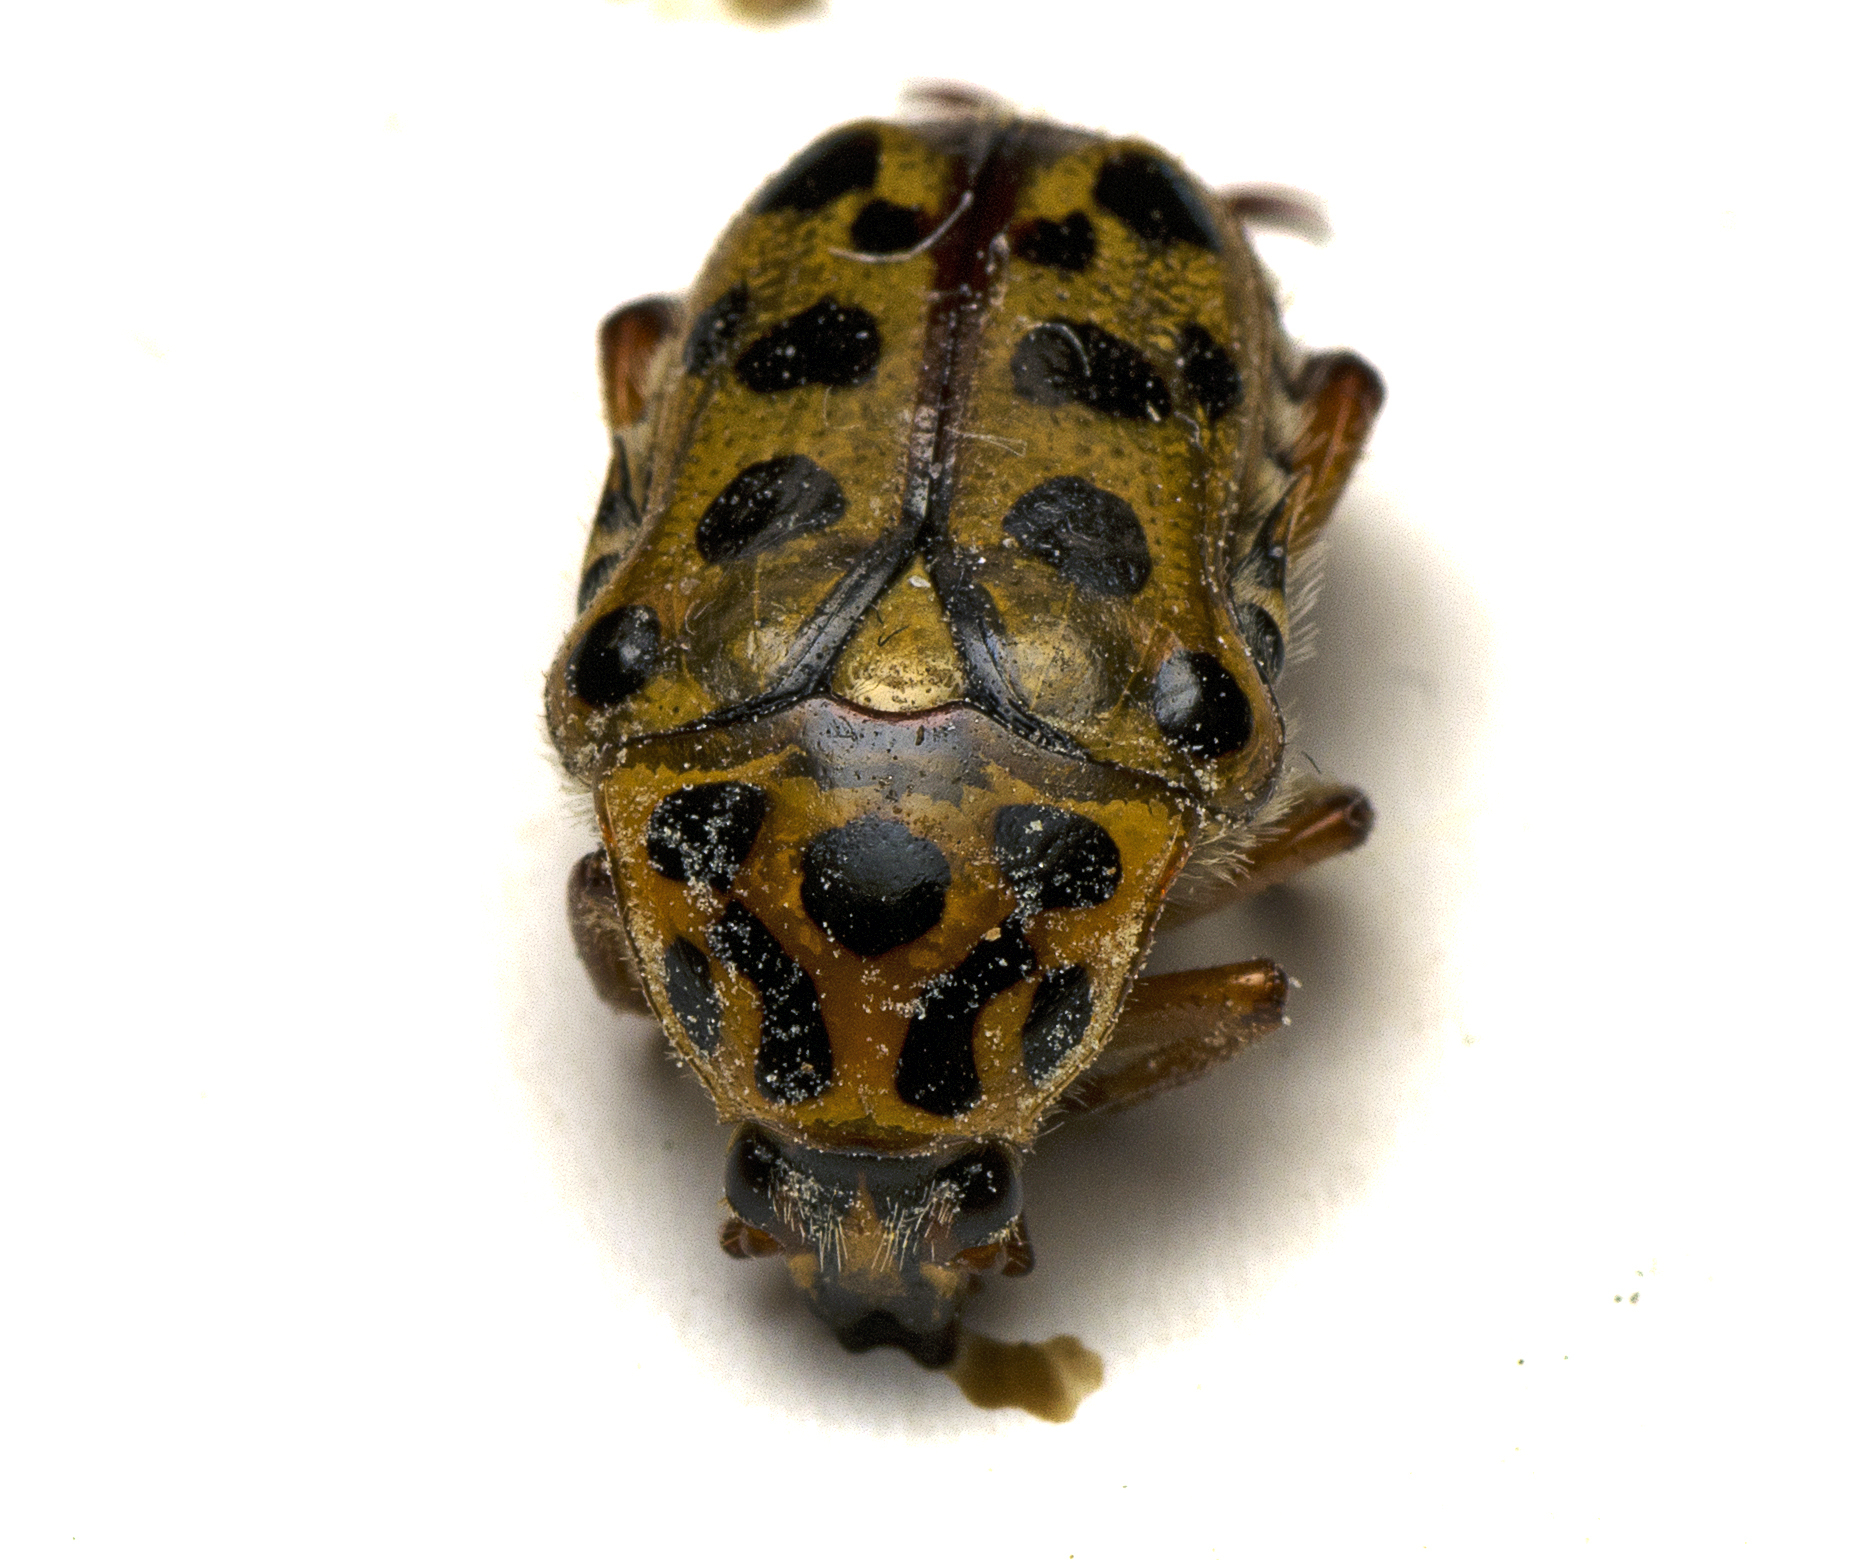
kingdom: Animalia
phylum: Arthropoda
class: Insecta
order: Coleoptera
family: Scarabaeidae
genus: Neorrhina
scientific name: Neorrhina punctatum
